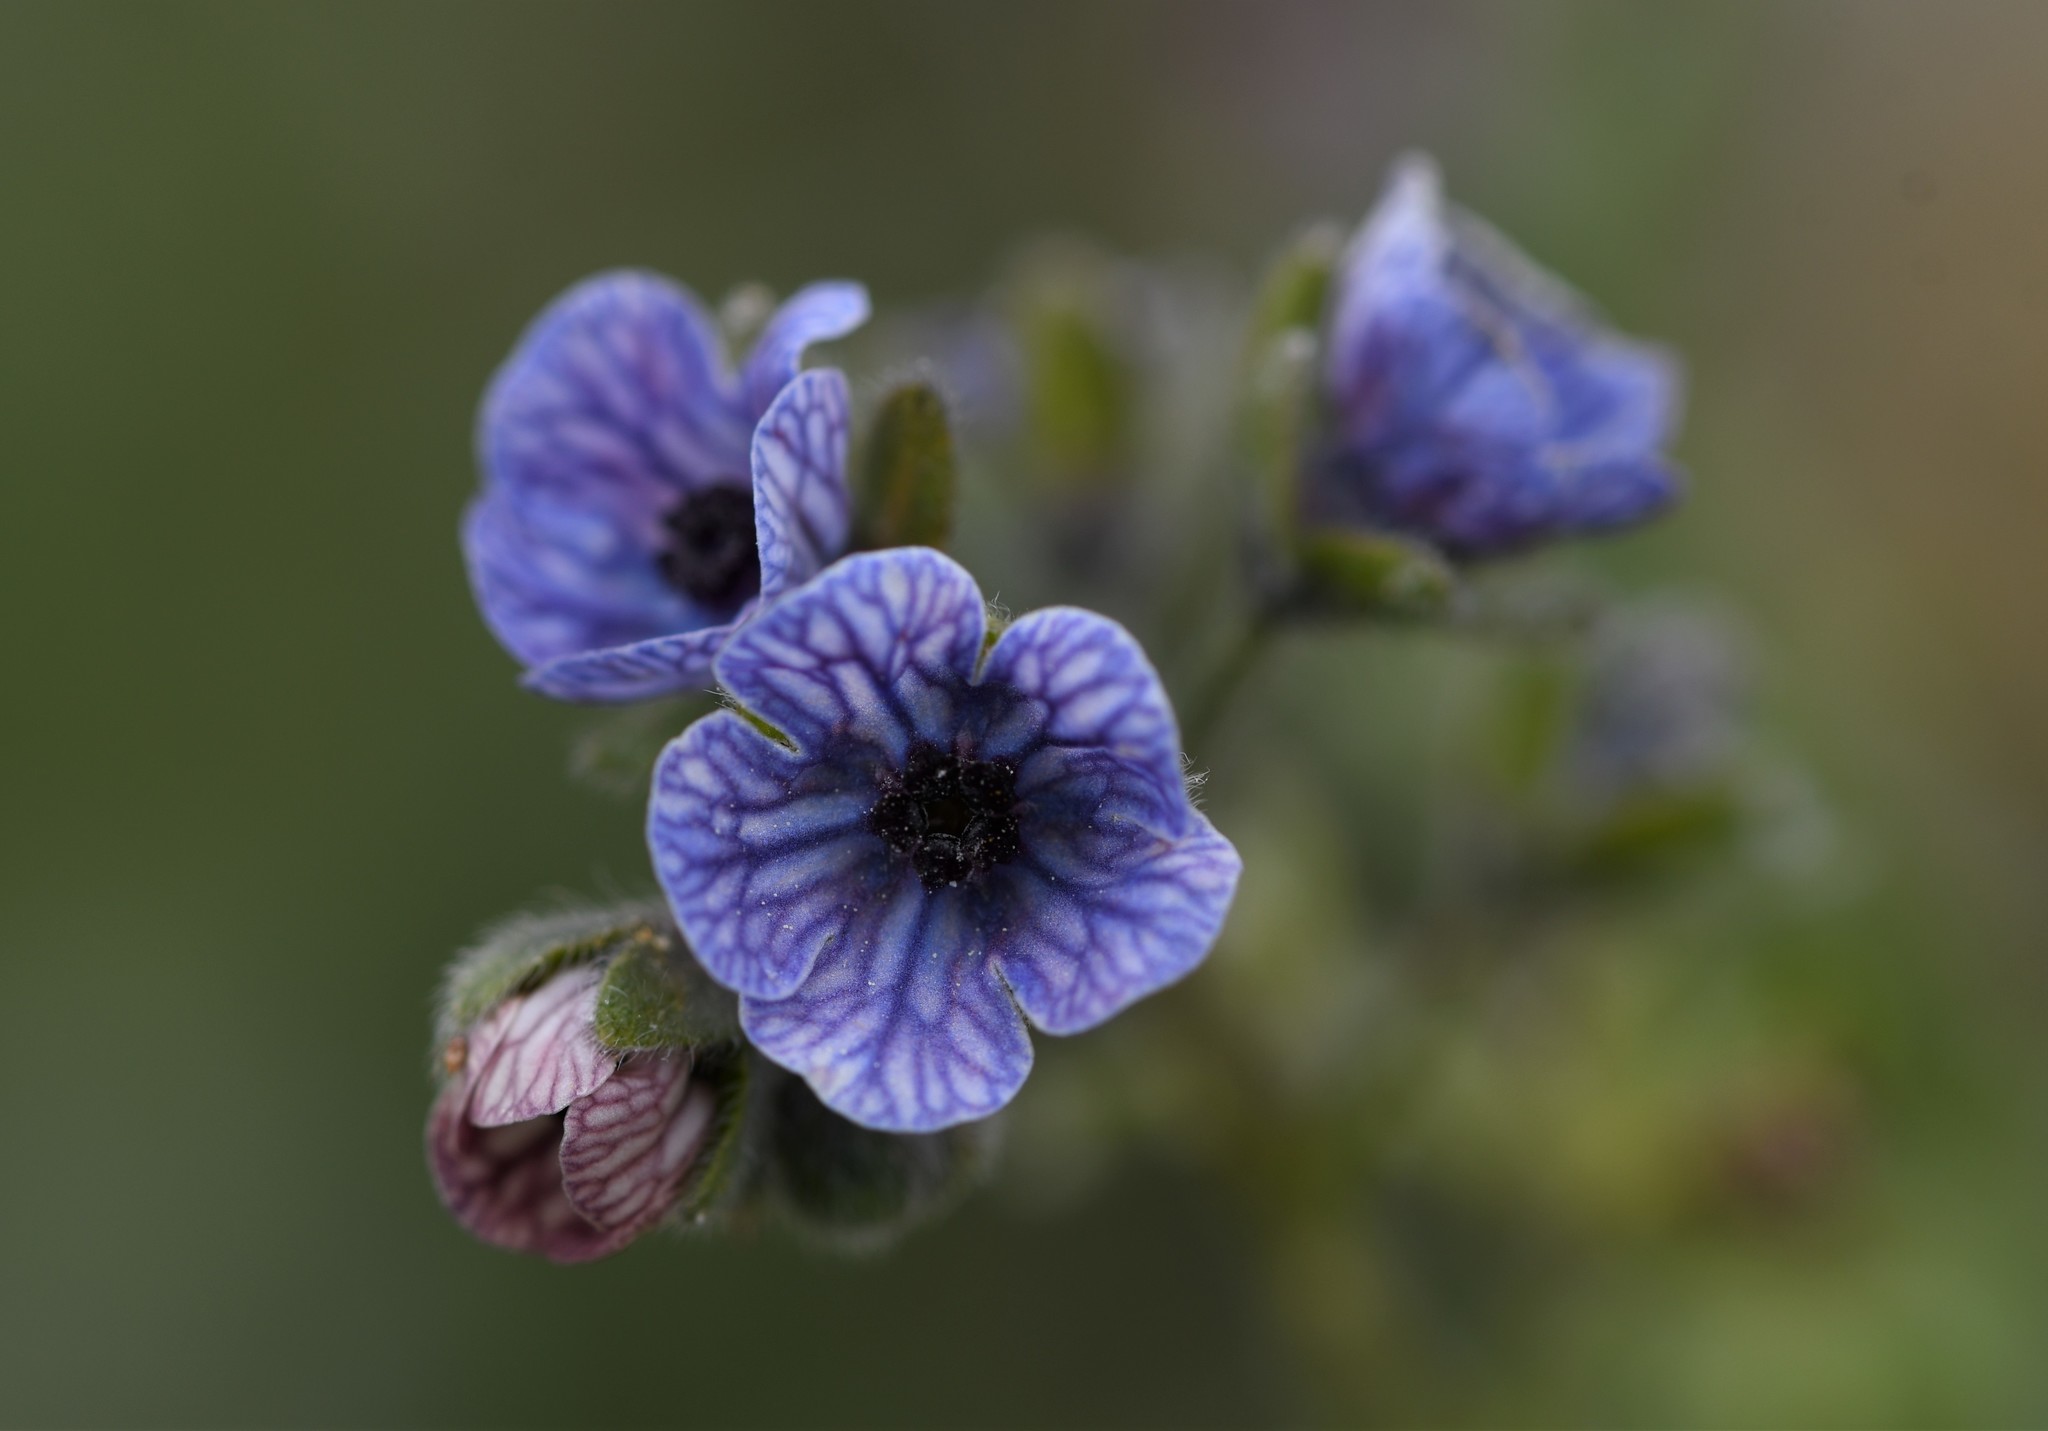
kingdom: Plantae
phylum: Tracheophyta
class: Magnoliopsida
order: Boraginales
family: Boraginaceae
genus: Cynoglossum
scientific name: Cynoglossum creticum
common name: Blue hound's tongue
